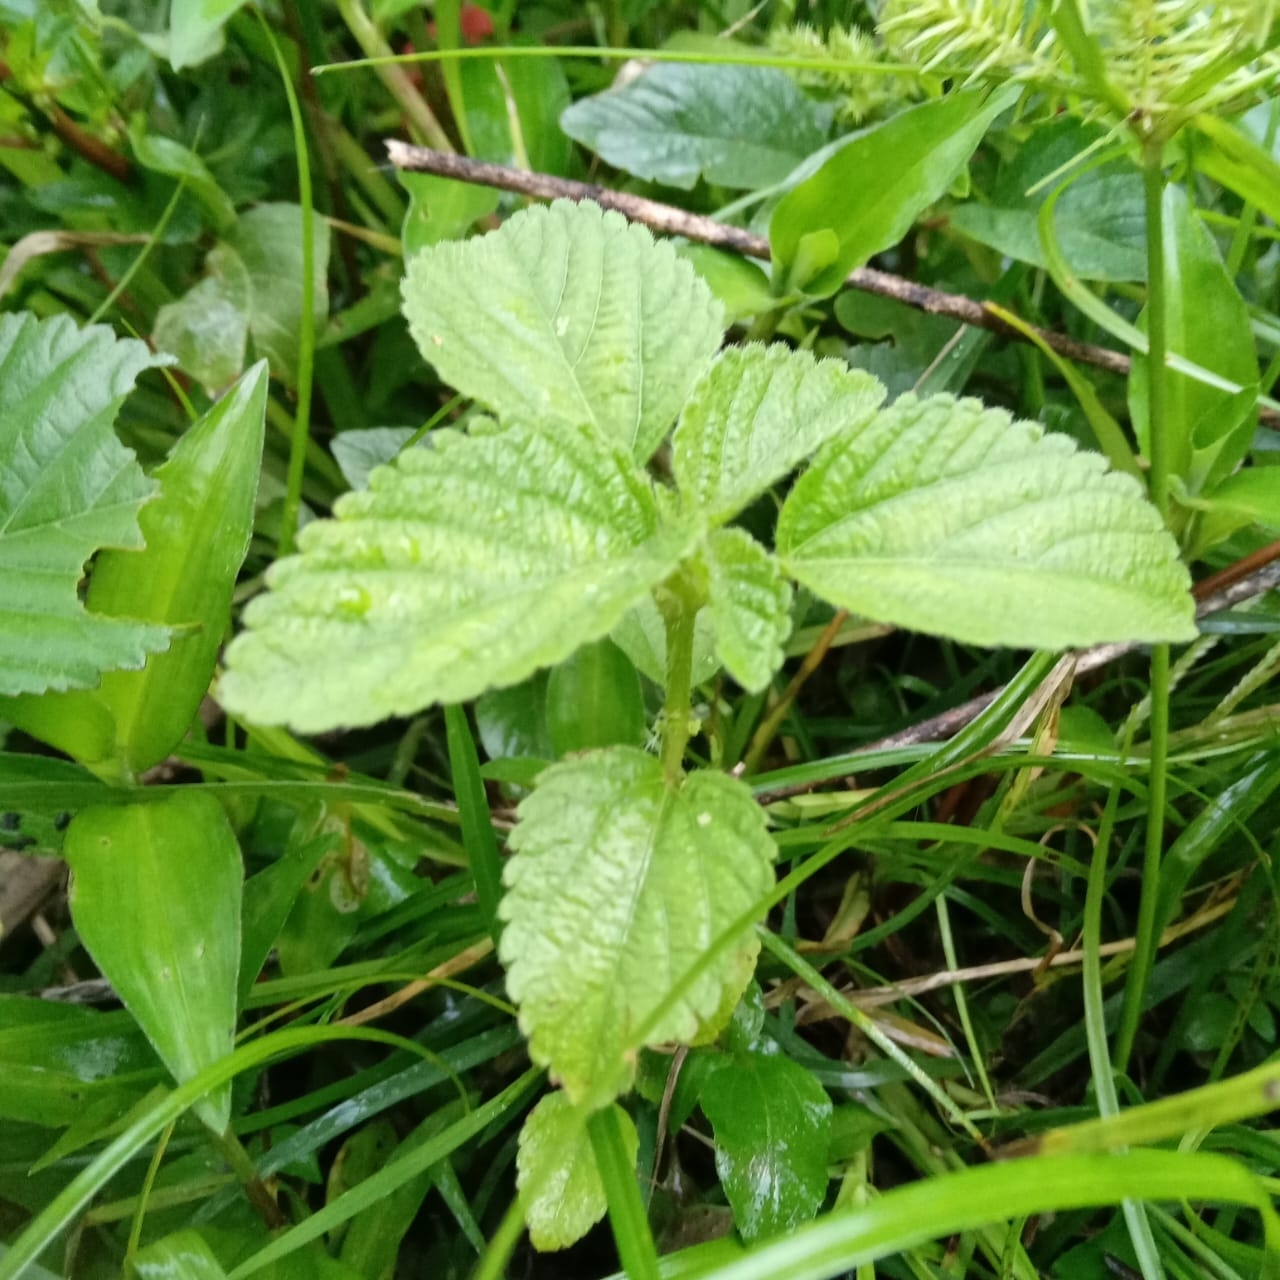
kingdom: Plantae
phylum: Tracheophyta
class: Magnoliopsida
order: Malpighiales
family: Euphorbiaceae
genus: Croton
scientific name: Croton hirtus
